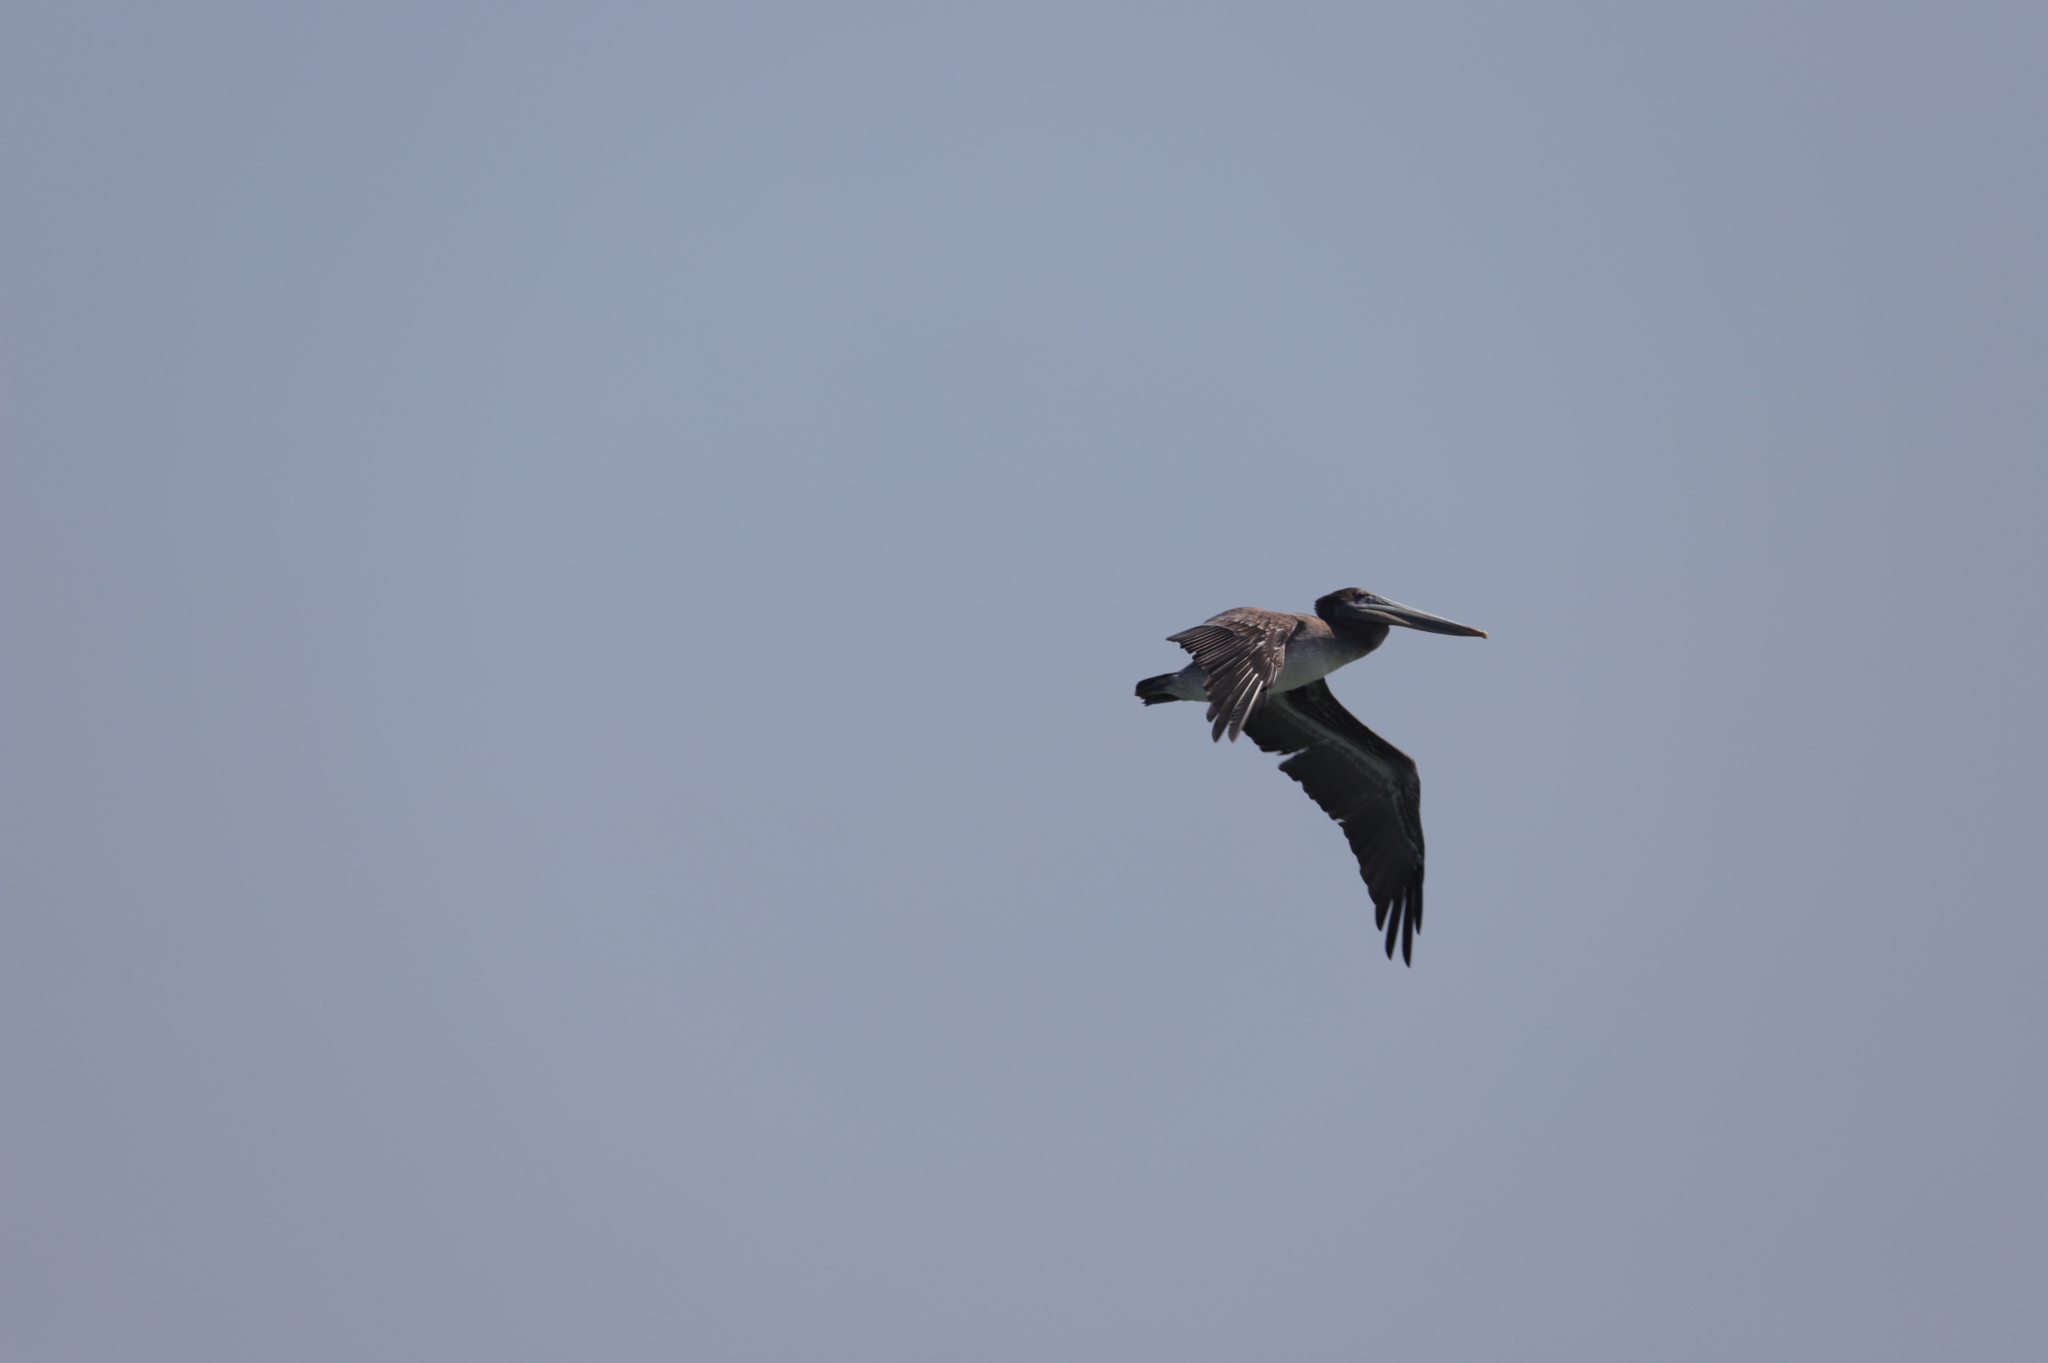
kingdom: Animalia
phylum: Chordata
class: Aves
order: Pelecaniformes
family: Pelecanidae
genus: Pelecanus
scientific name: Pelecanus occidentalis
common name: Brown pelican
